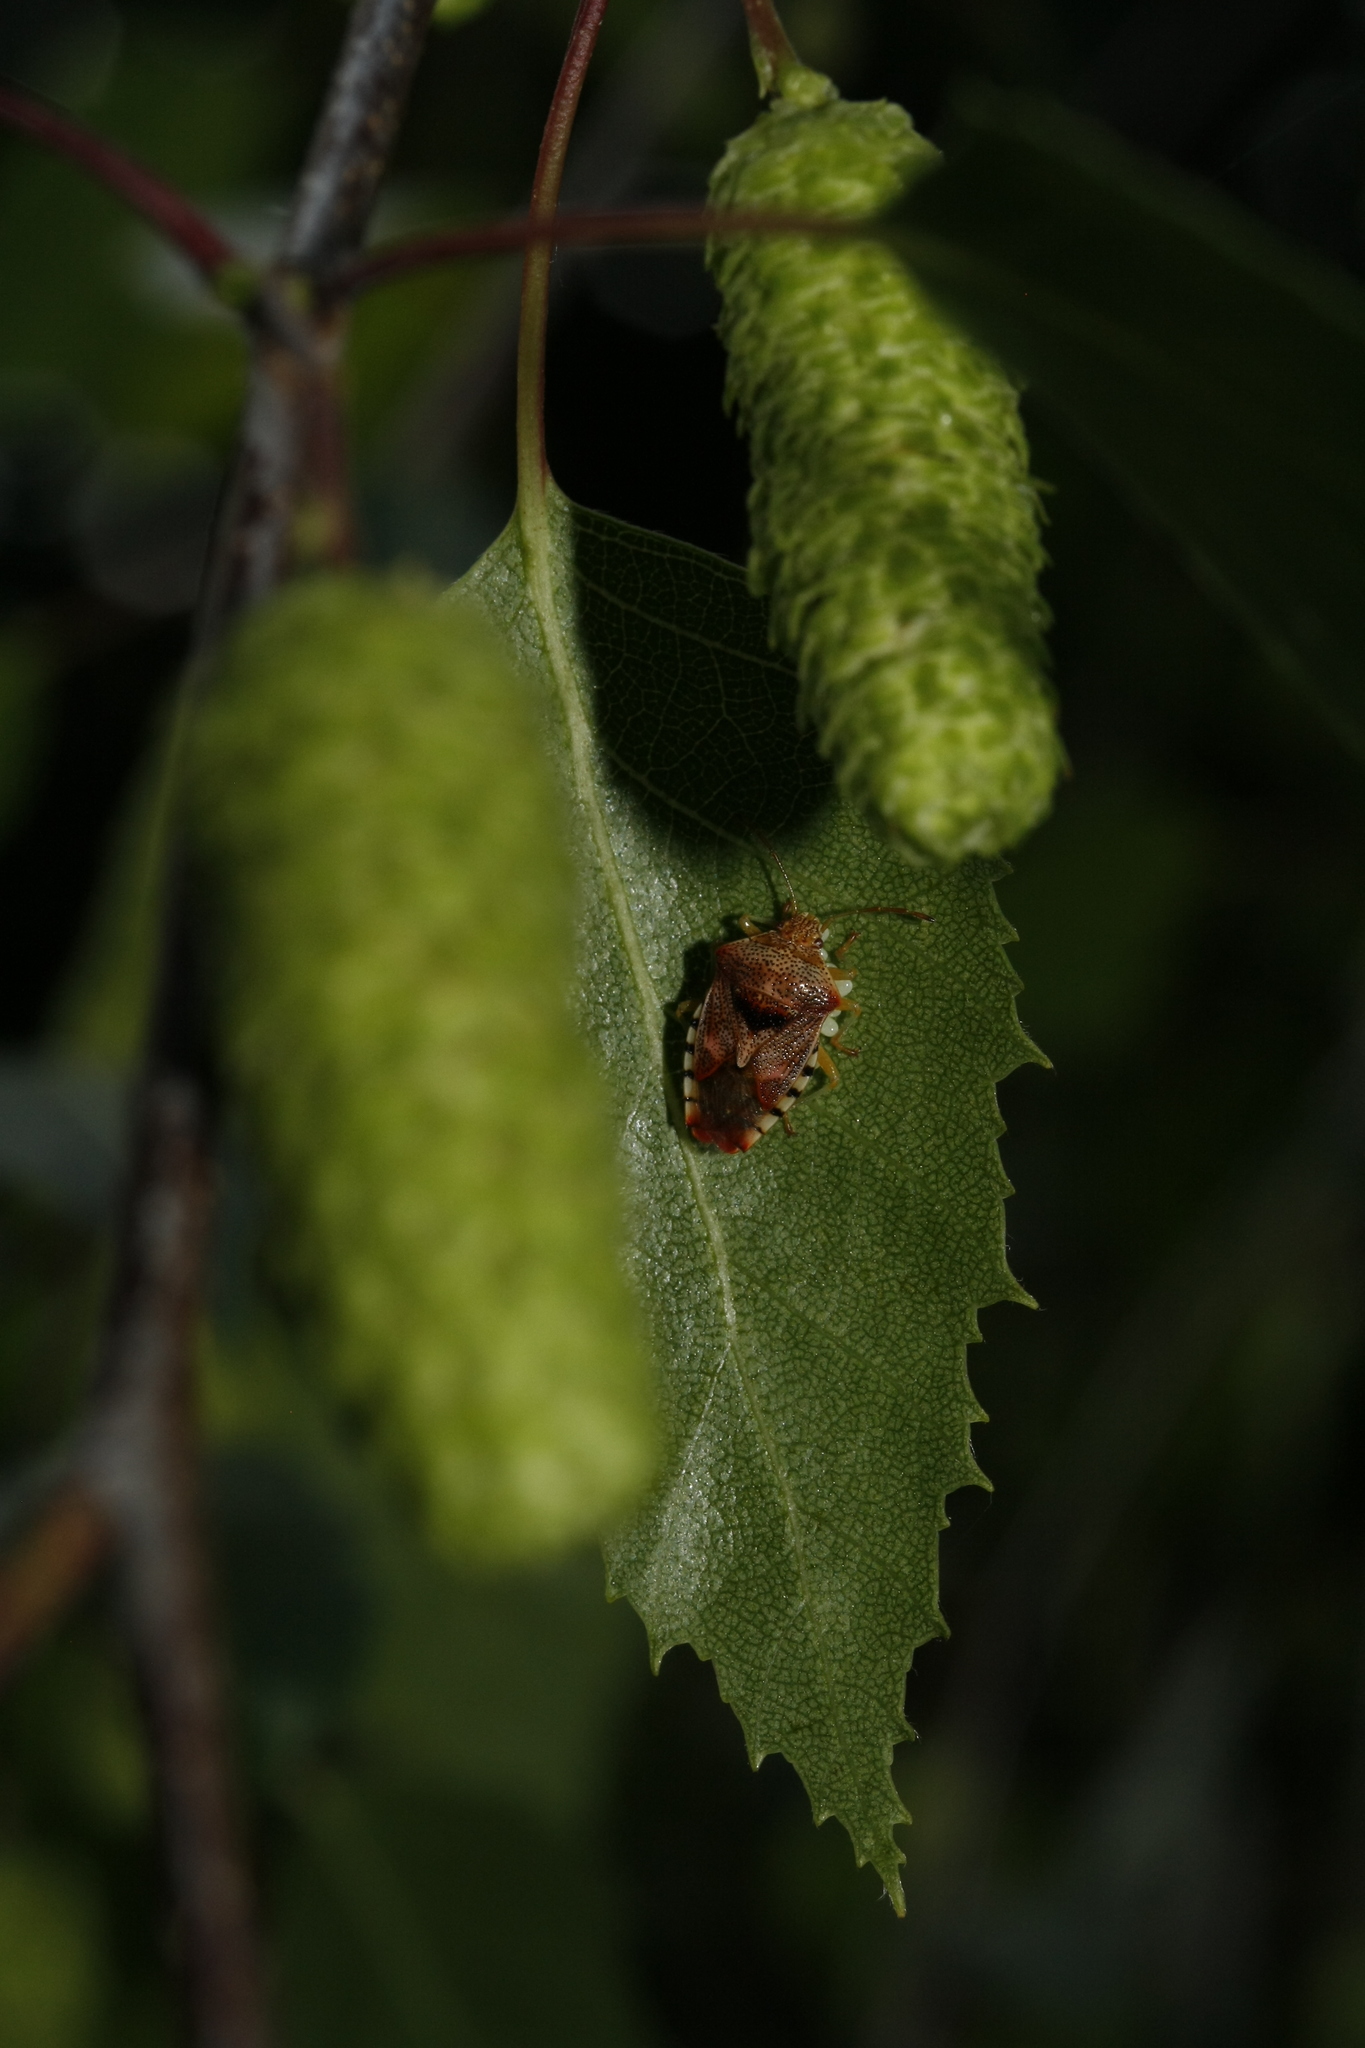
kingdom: Animalia
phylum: Arthropoda
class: Insecta
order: Hemiptera
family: Acanthosomatidae
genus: Elasmucha
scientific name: Elasmucha grisea
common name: Parent bug
